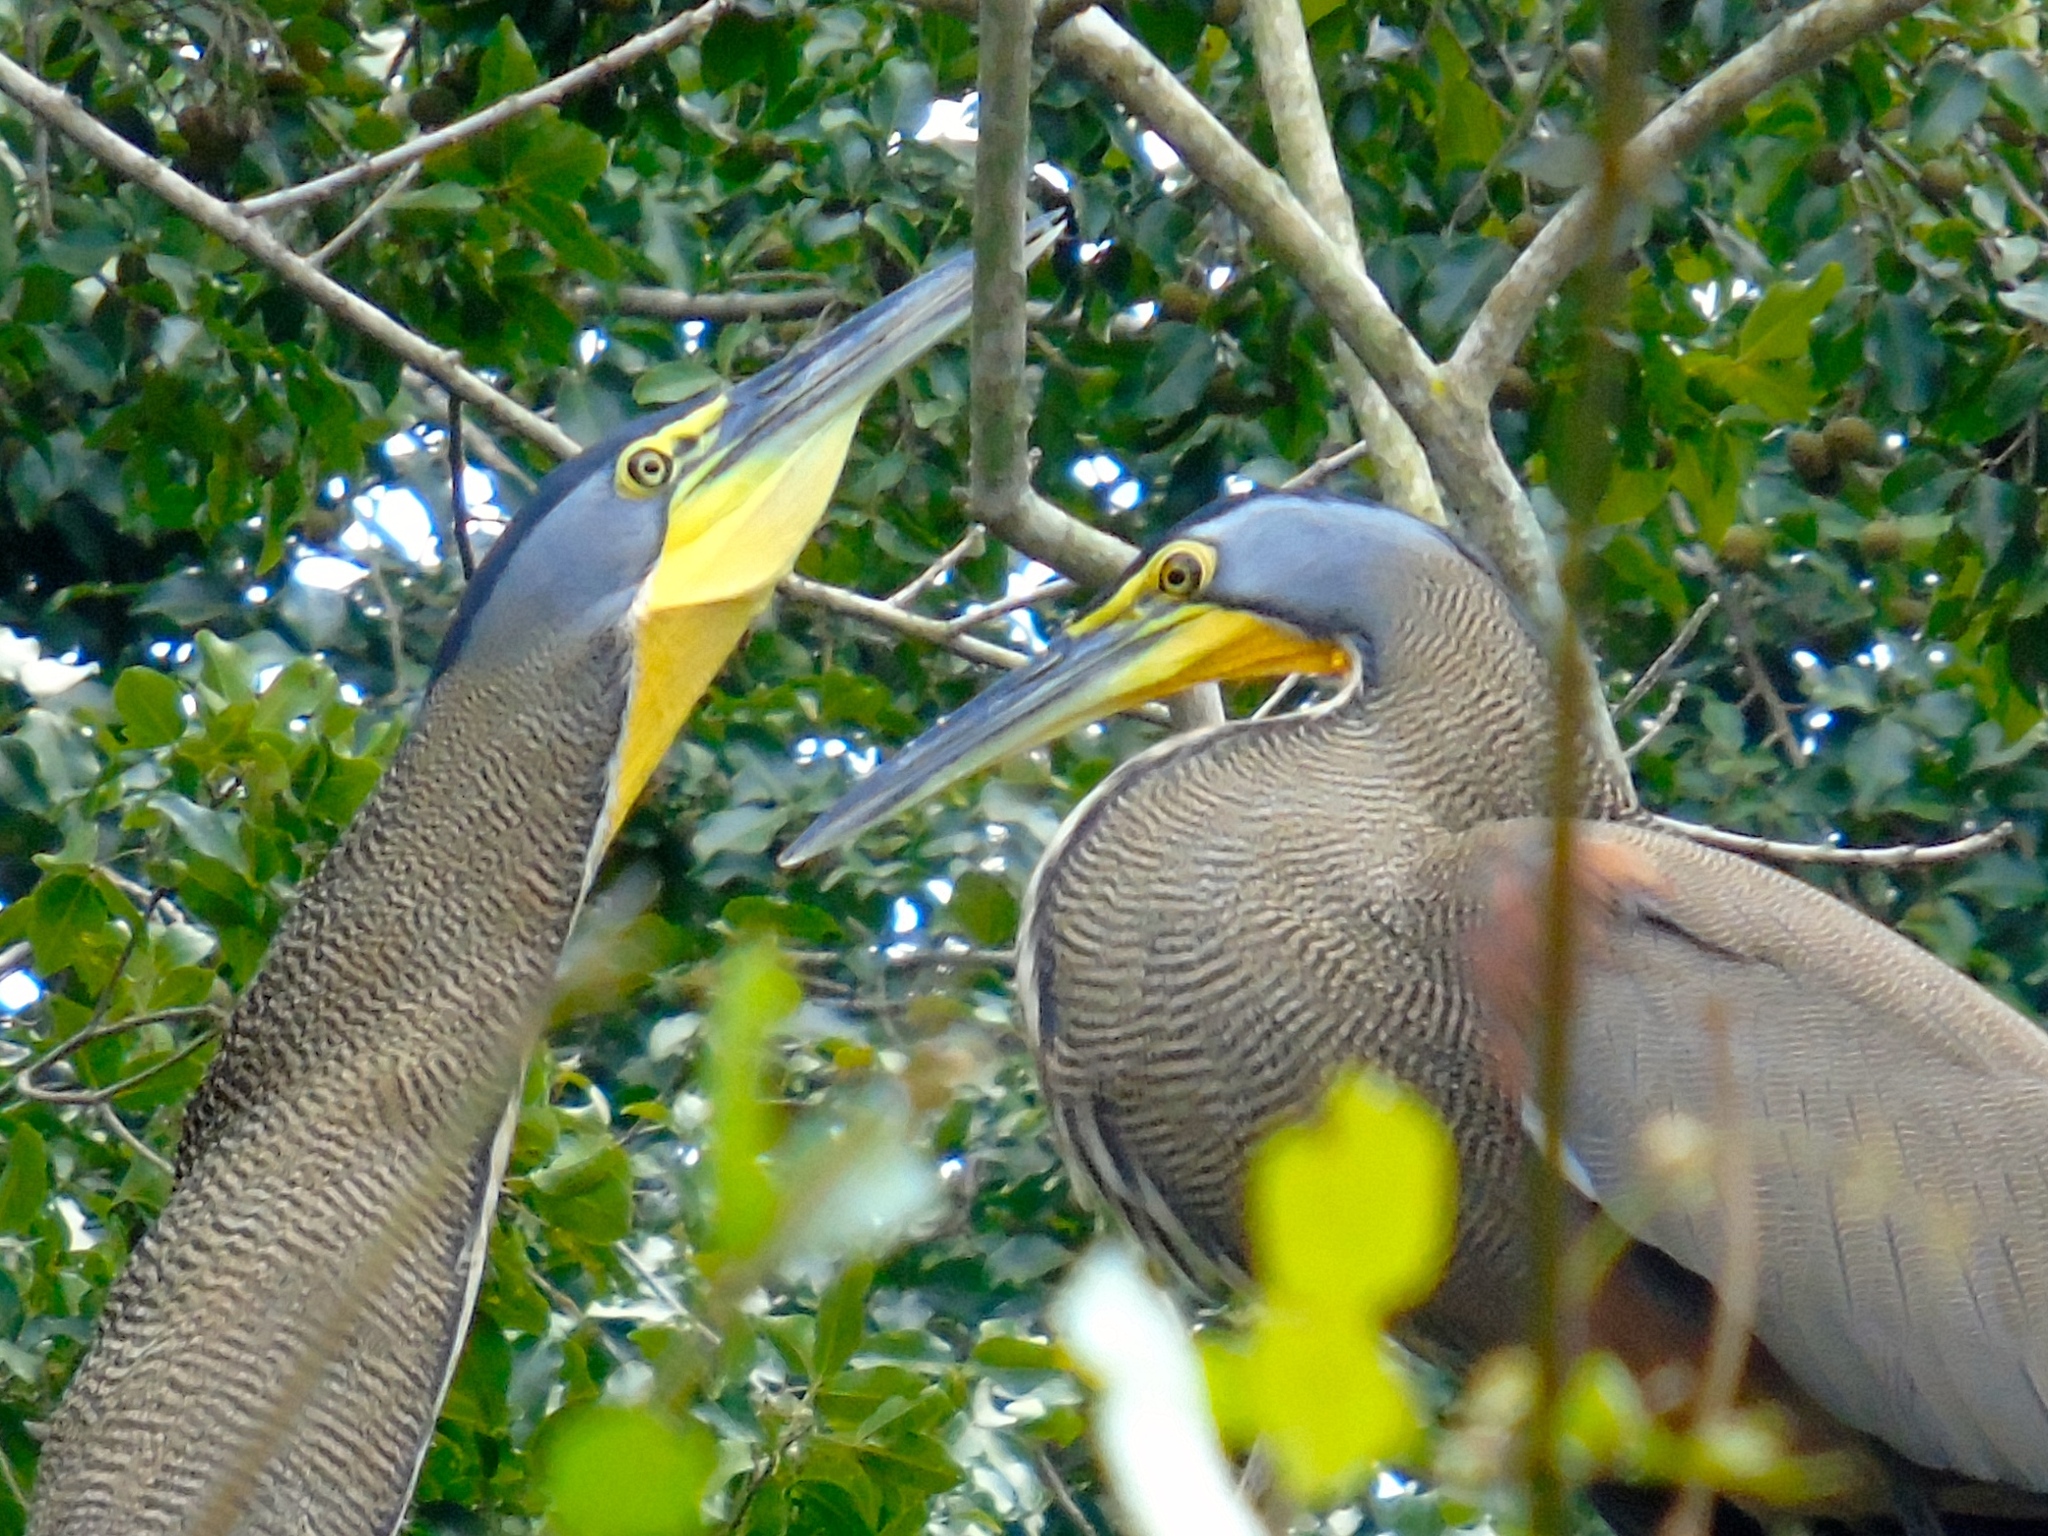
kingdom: Animalia
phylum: Chordata
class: Aves
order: Pelecaniformes
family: Ardeidae
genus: Tigrisoma
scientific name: Tigrisoma mexicanum
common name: Bare-throated tiger-heron
